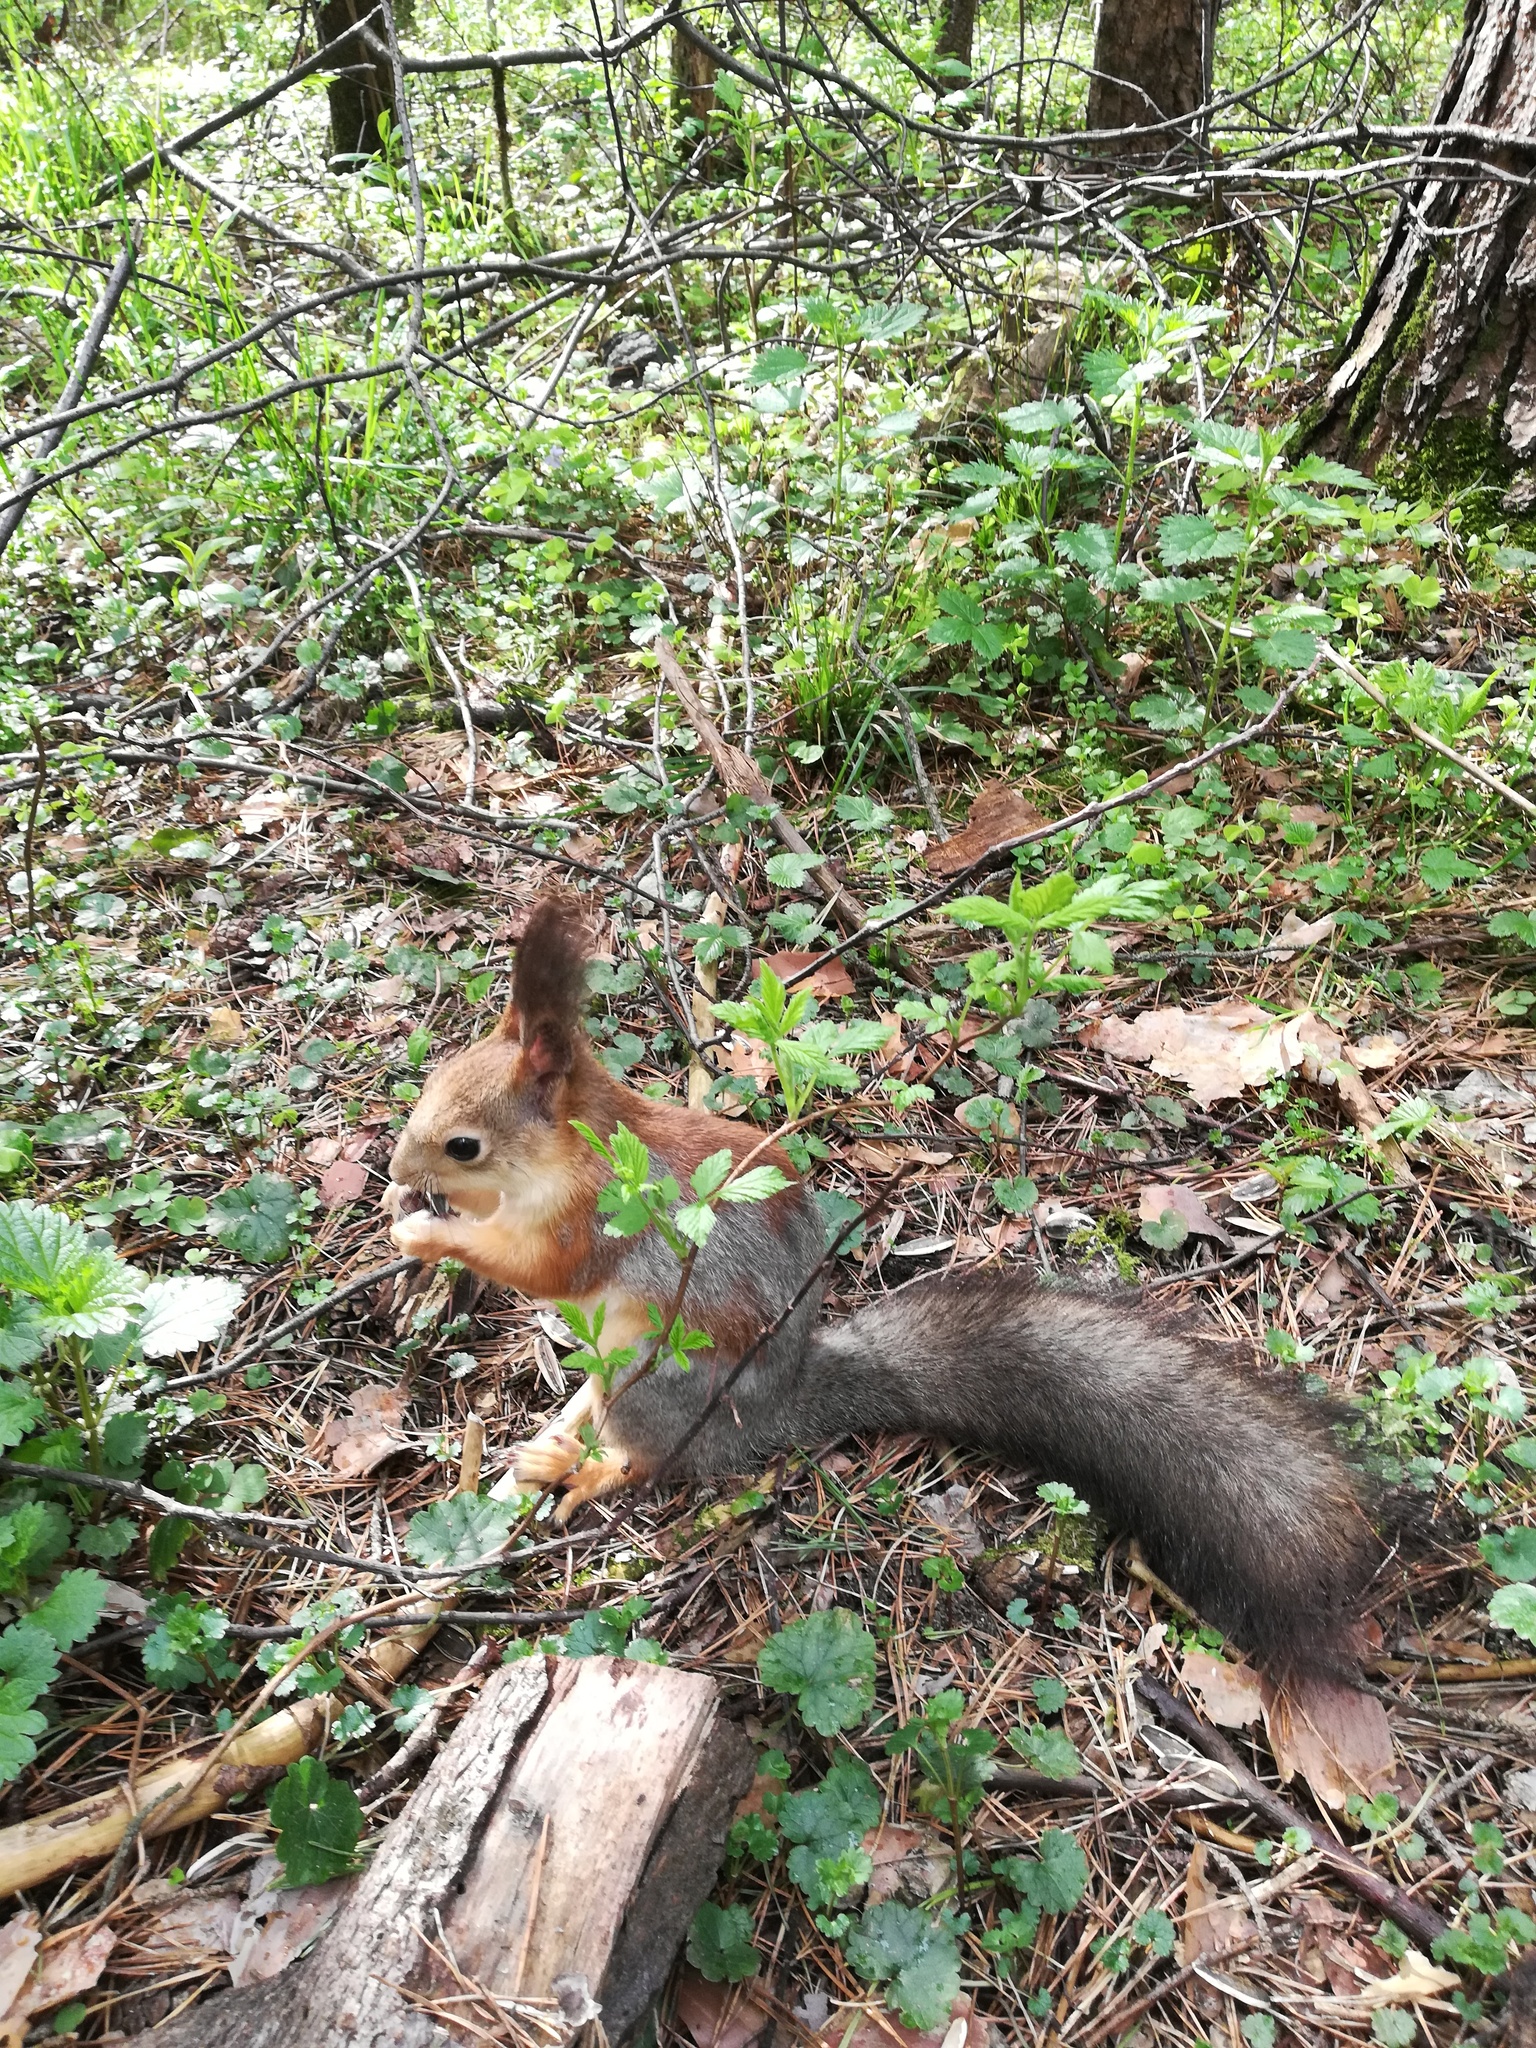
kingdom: Animalia
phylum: Chordata
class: Mammalia
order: Rodentia
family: Sciuridae
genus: Sciurus
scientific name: Sciurus vulgaris
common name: Eurasian red squirrel
